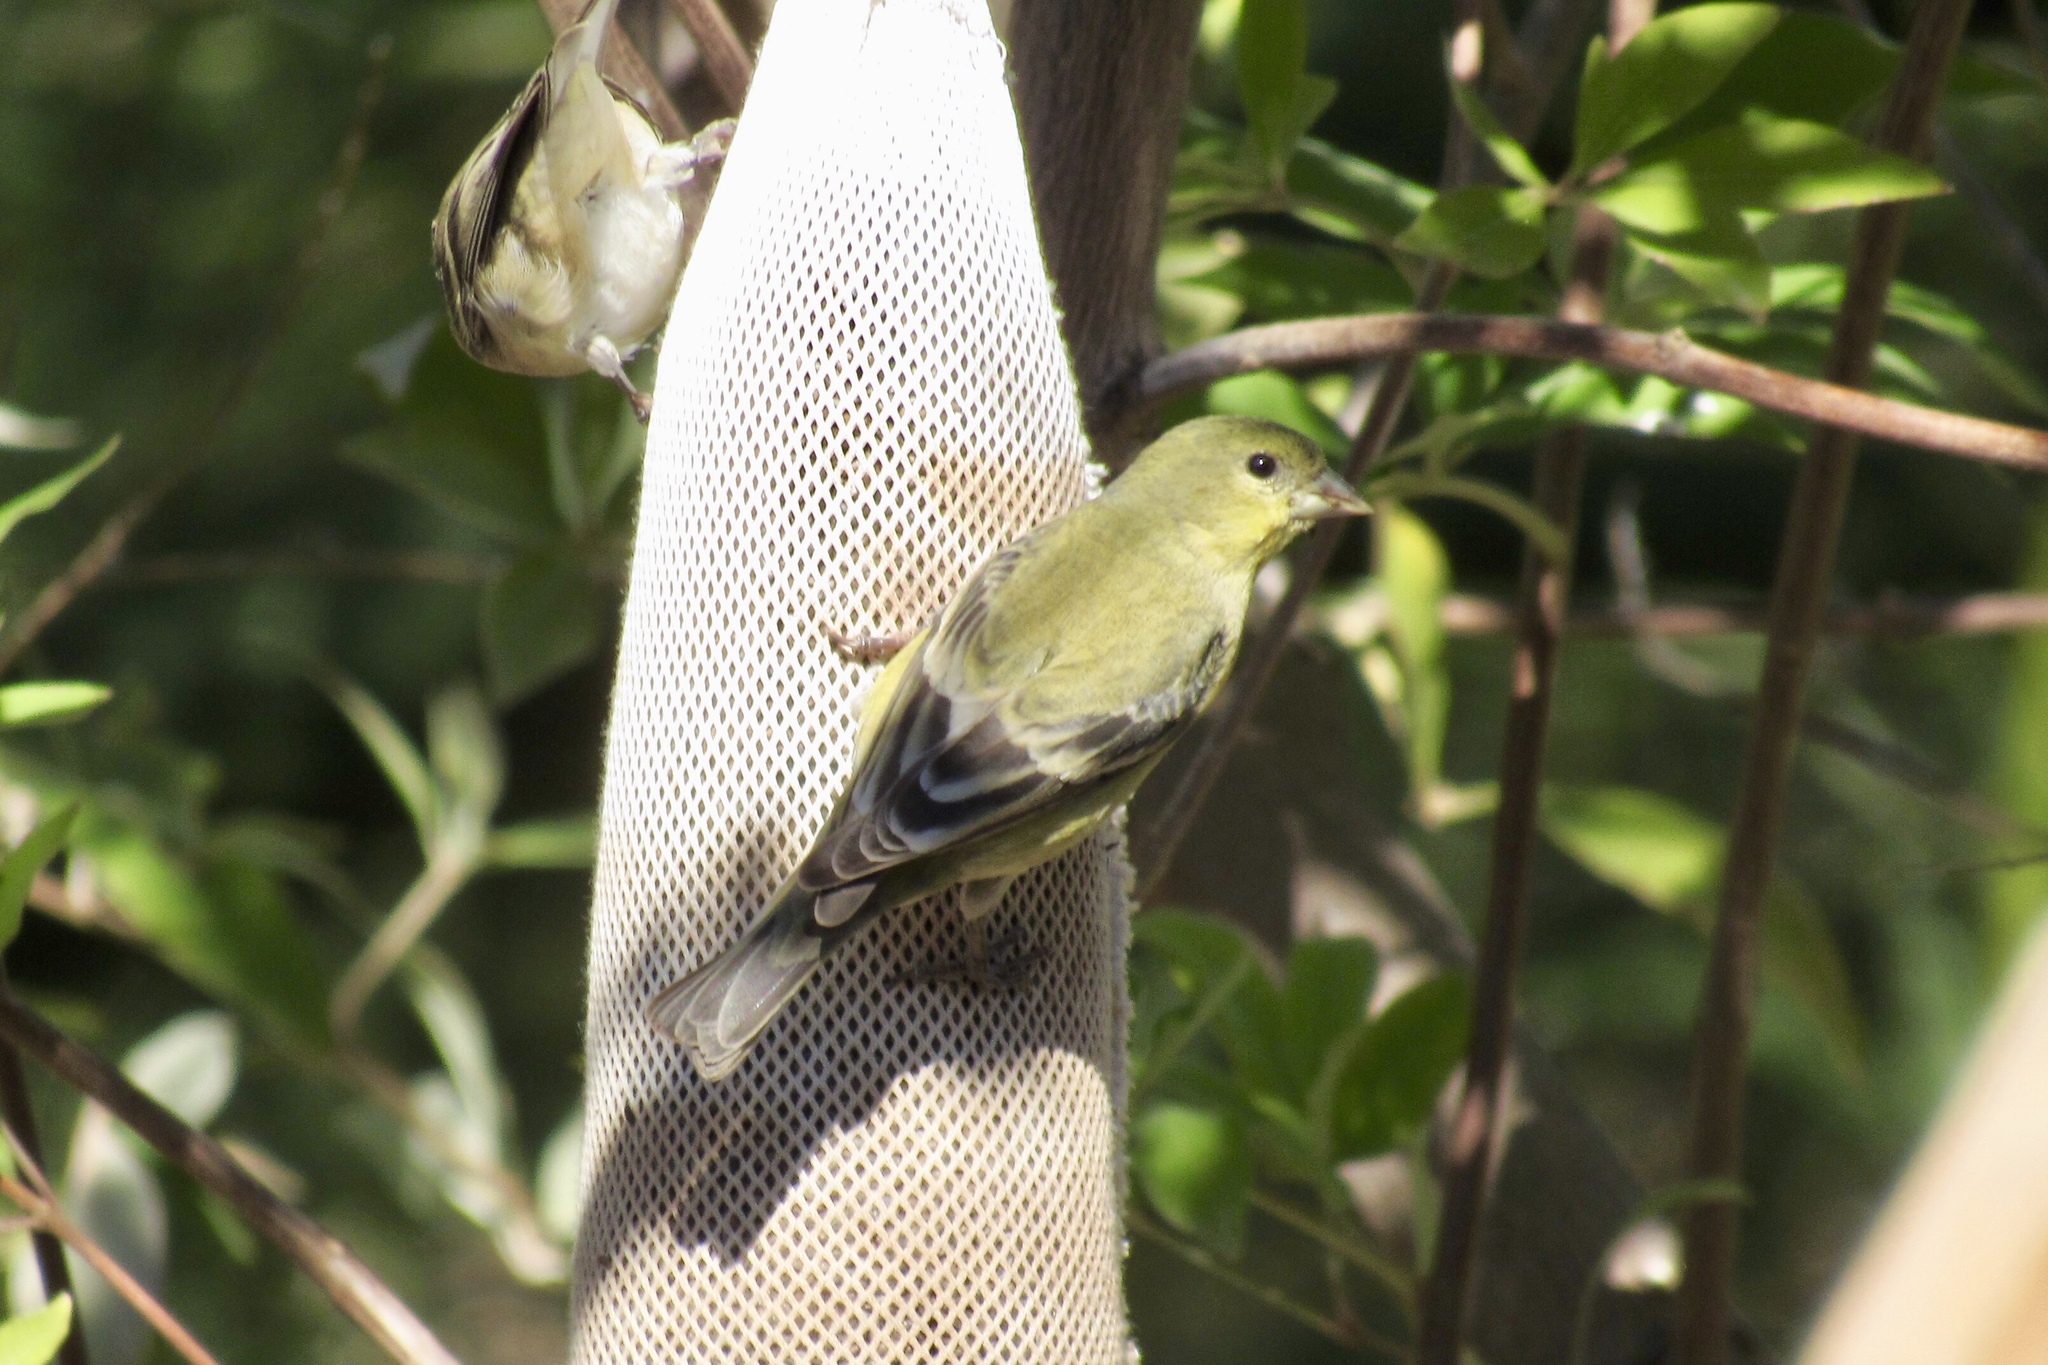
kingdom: Animalia
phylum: Chordata
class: Aves
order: Passeriformes
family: Fringillidae
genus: Spinus
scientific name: Spinus psaltria
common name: Lesser goldfinch
